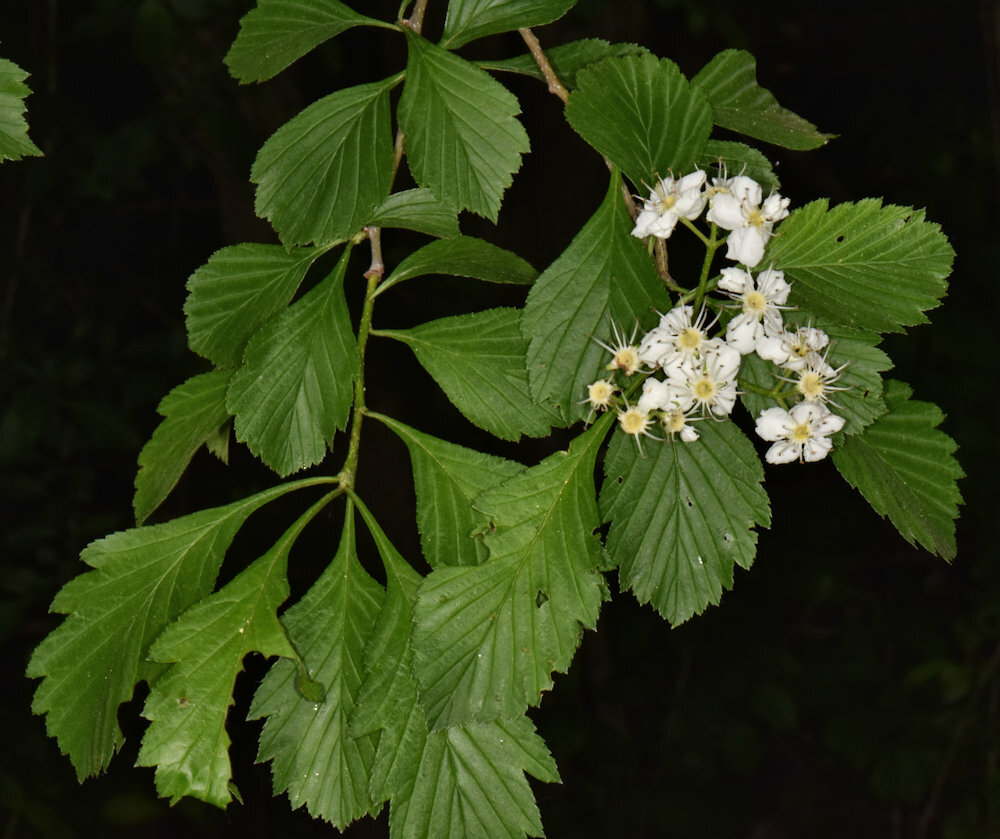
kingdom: Plantae
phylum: Tracheophyta
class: Magnoliopsida
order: Rosales
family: Rosaceae
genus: Crataegus
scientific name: Crataegus punctata
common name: Dotted hawthorn
